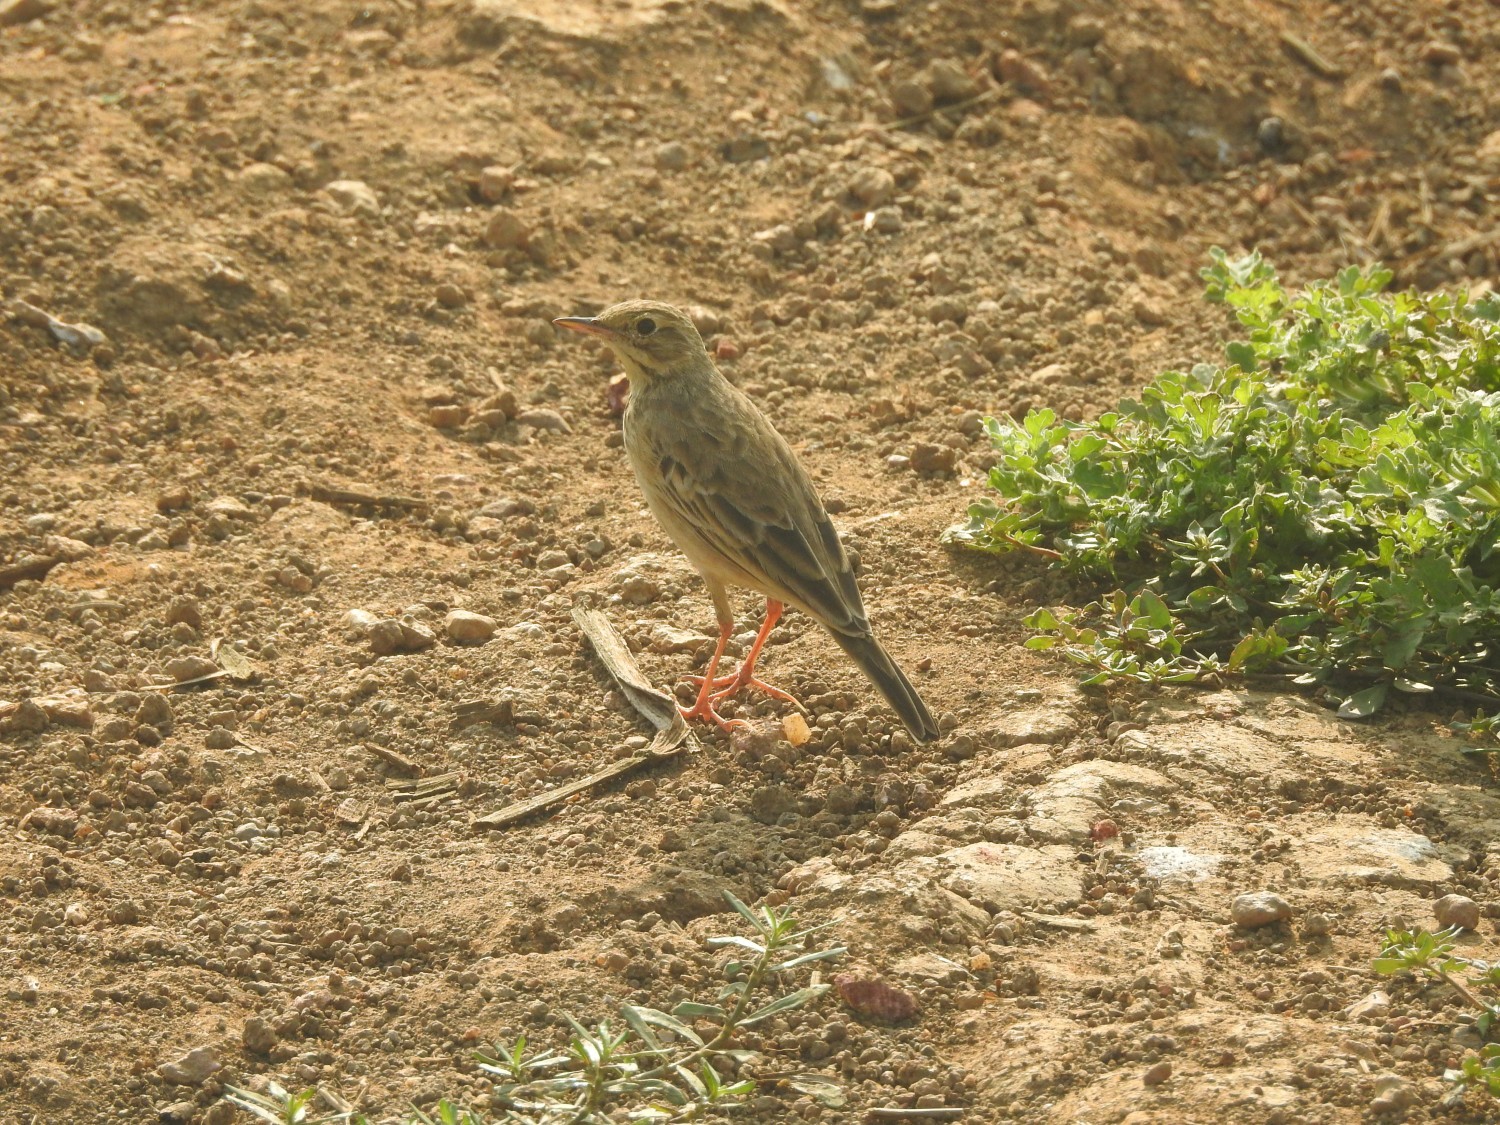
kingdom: Animalia
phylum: Chordata
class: Aves
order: Passeriformes
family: Motacillidae
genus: Anthus
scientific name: Anthus rufulus
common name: Paddyfield pipit
